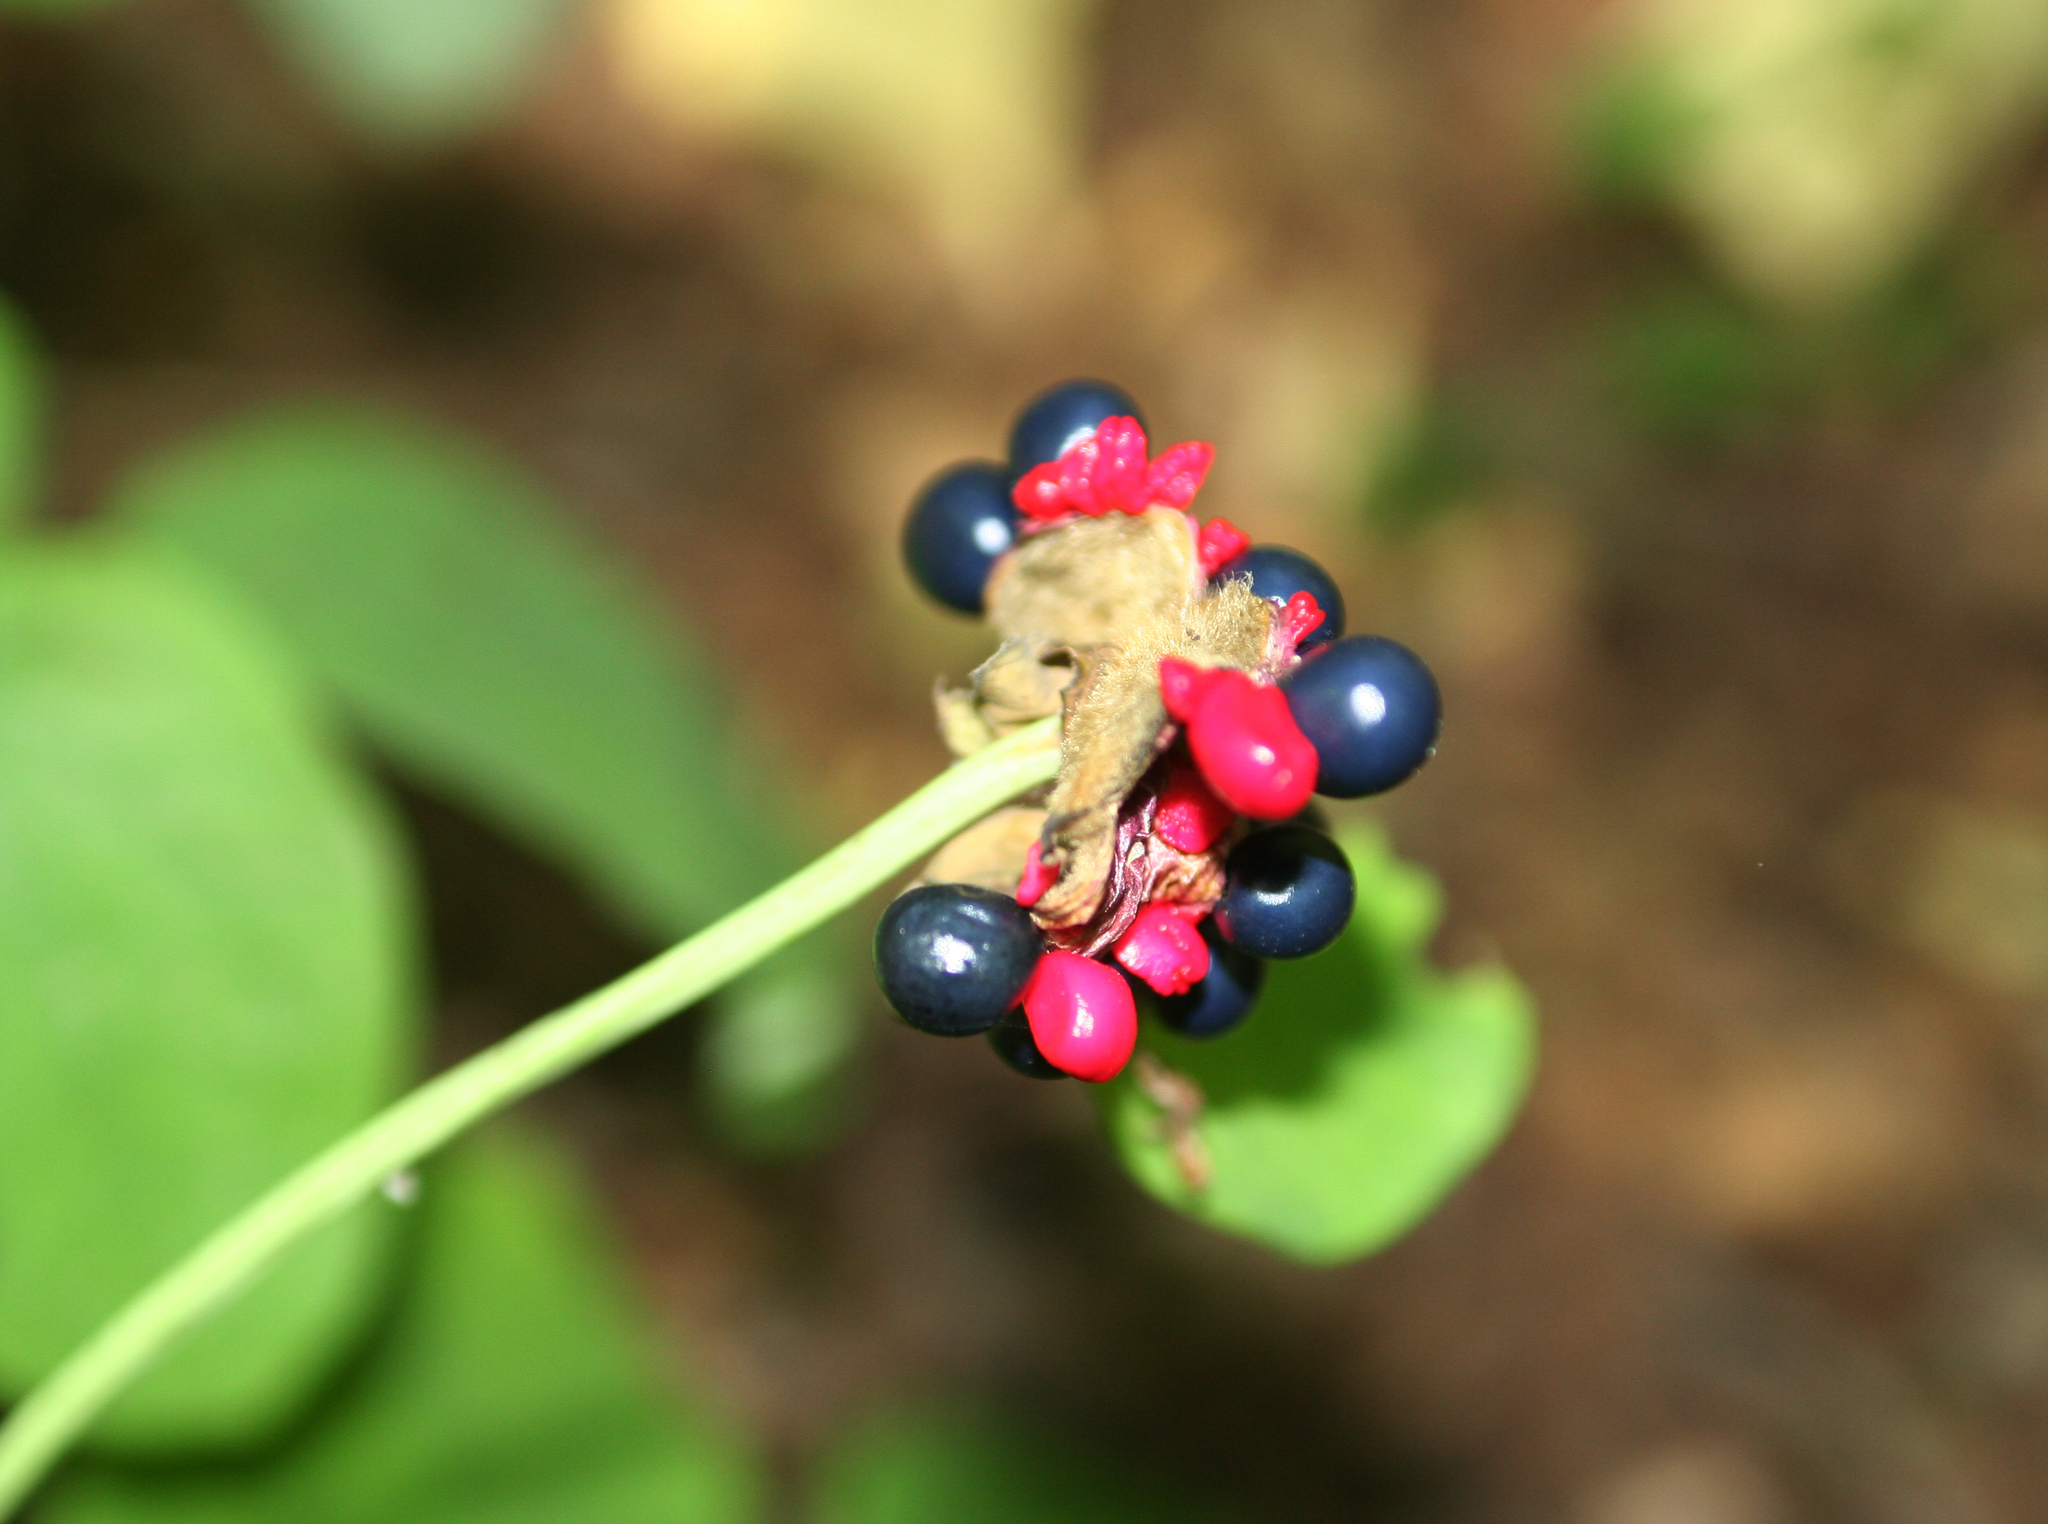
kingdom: Plantae
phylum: Tracheophyta
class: Magnoliopsida
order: Saxifragales
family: Paeoniaceae
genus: Paeonia
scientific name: Paeonia caucasica
